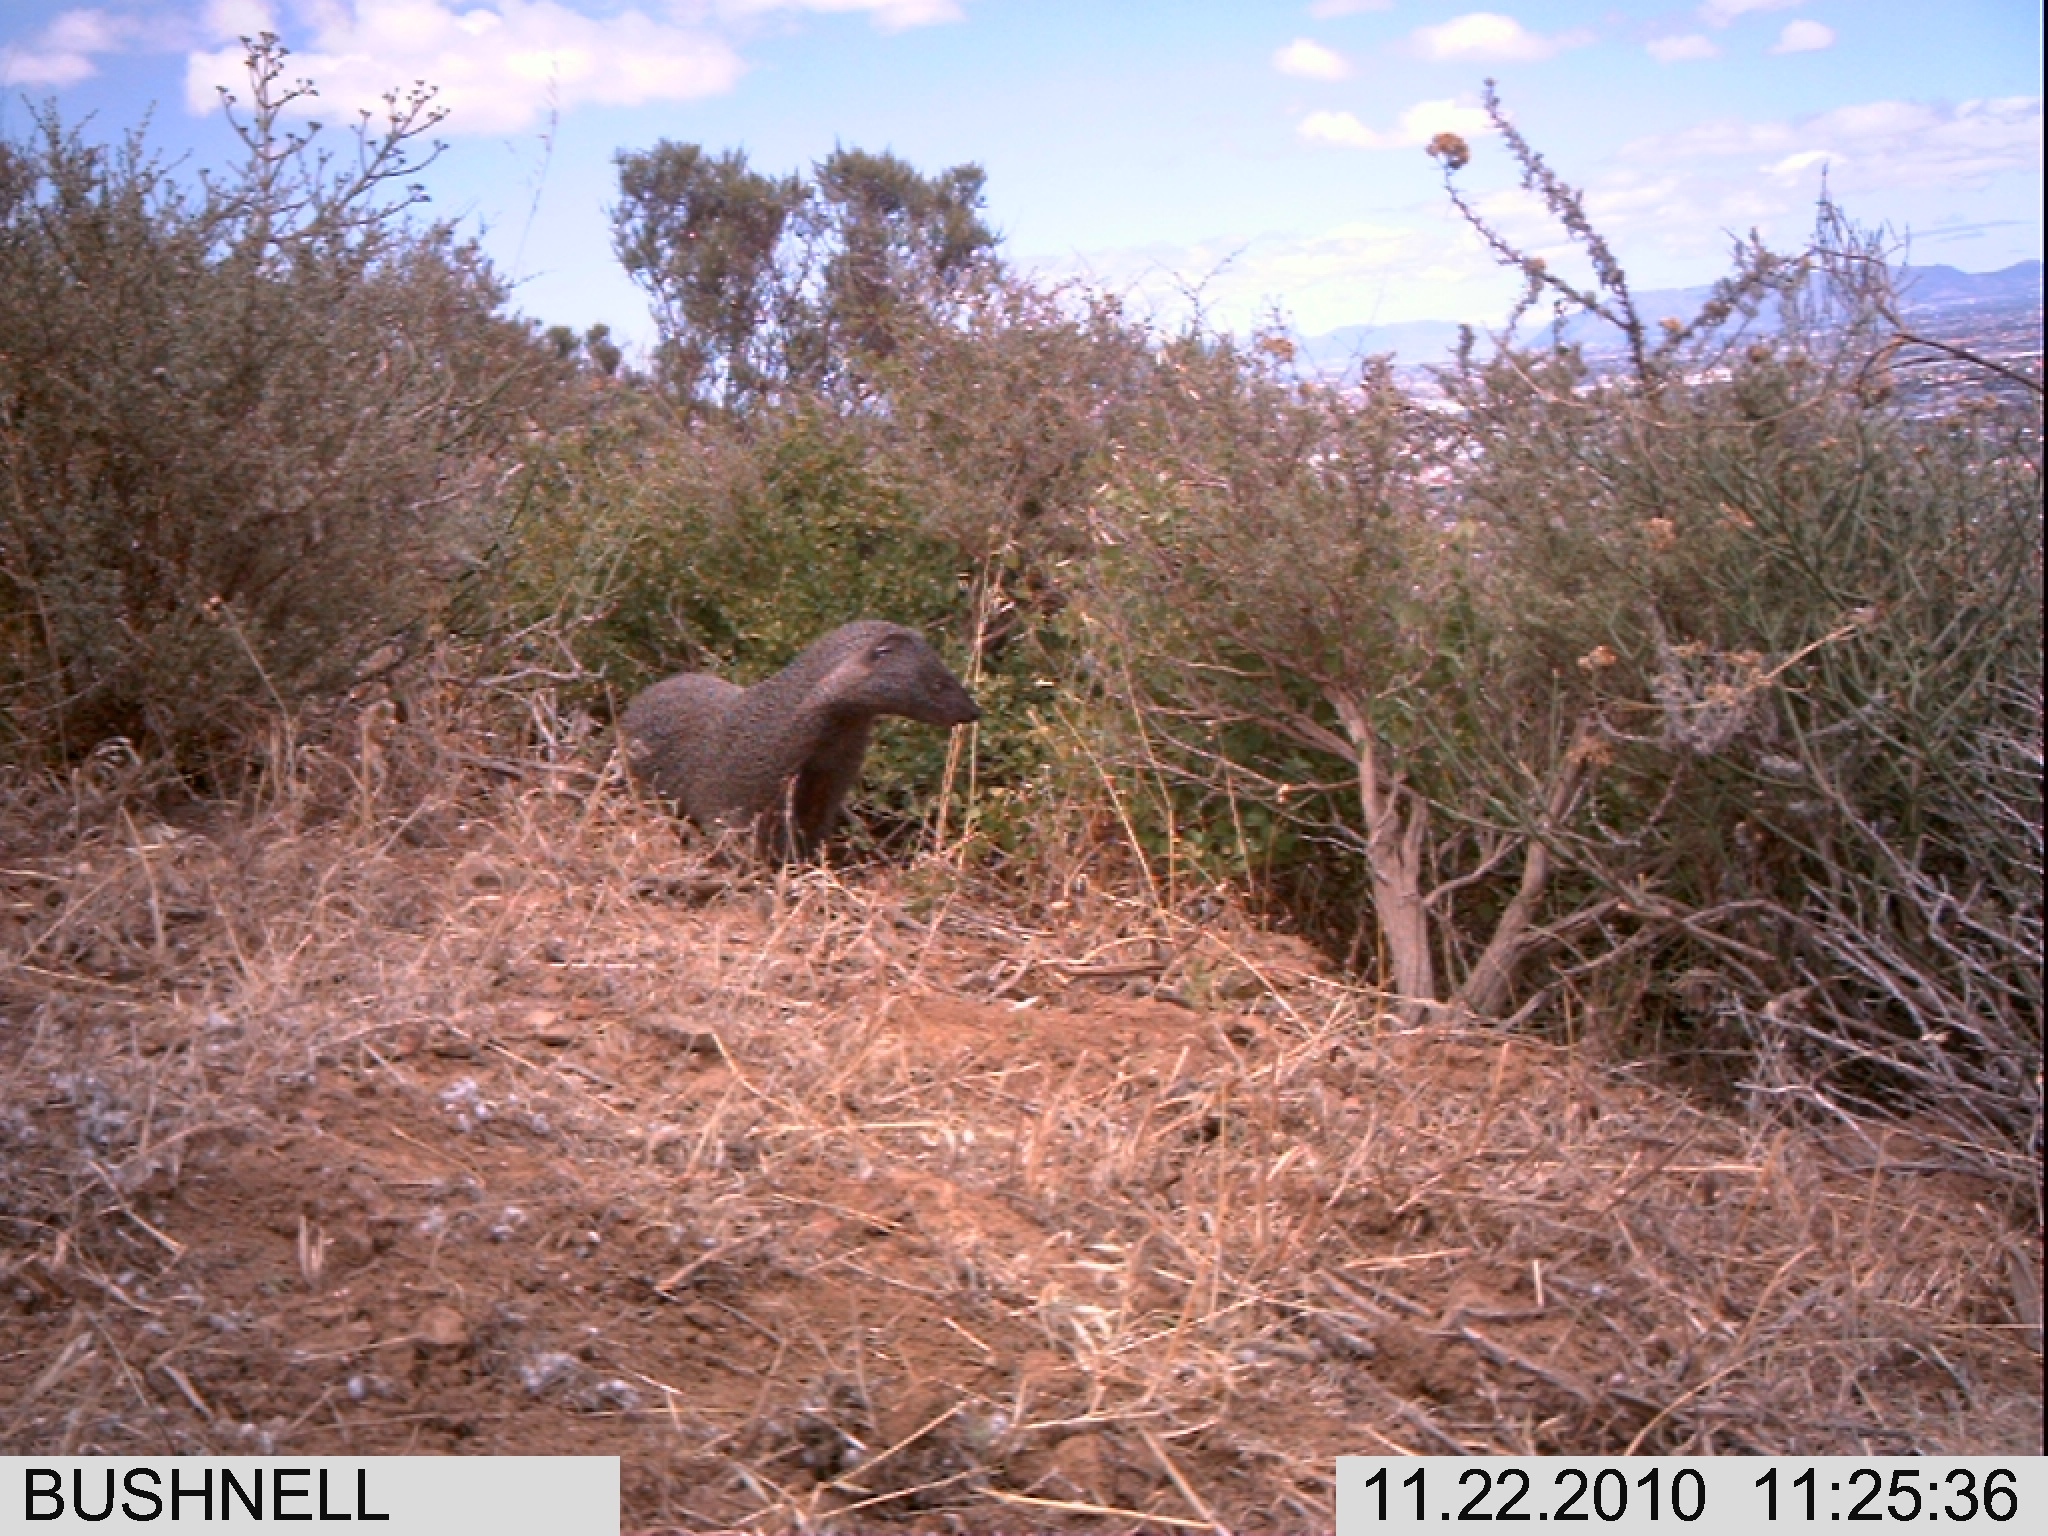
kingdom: Animalia
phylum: Chordata
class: Mammalia
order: Carnivora
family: Herpestidae
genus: Herpestes
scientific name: Herpestes ichneumon
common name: Egyptian mongoose
